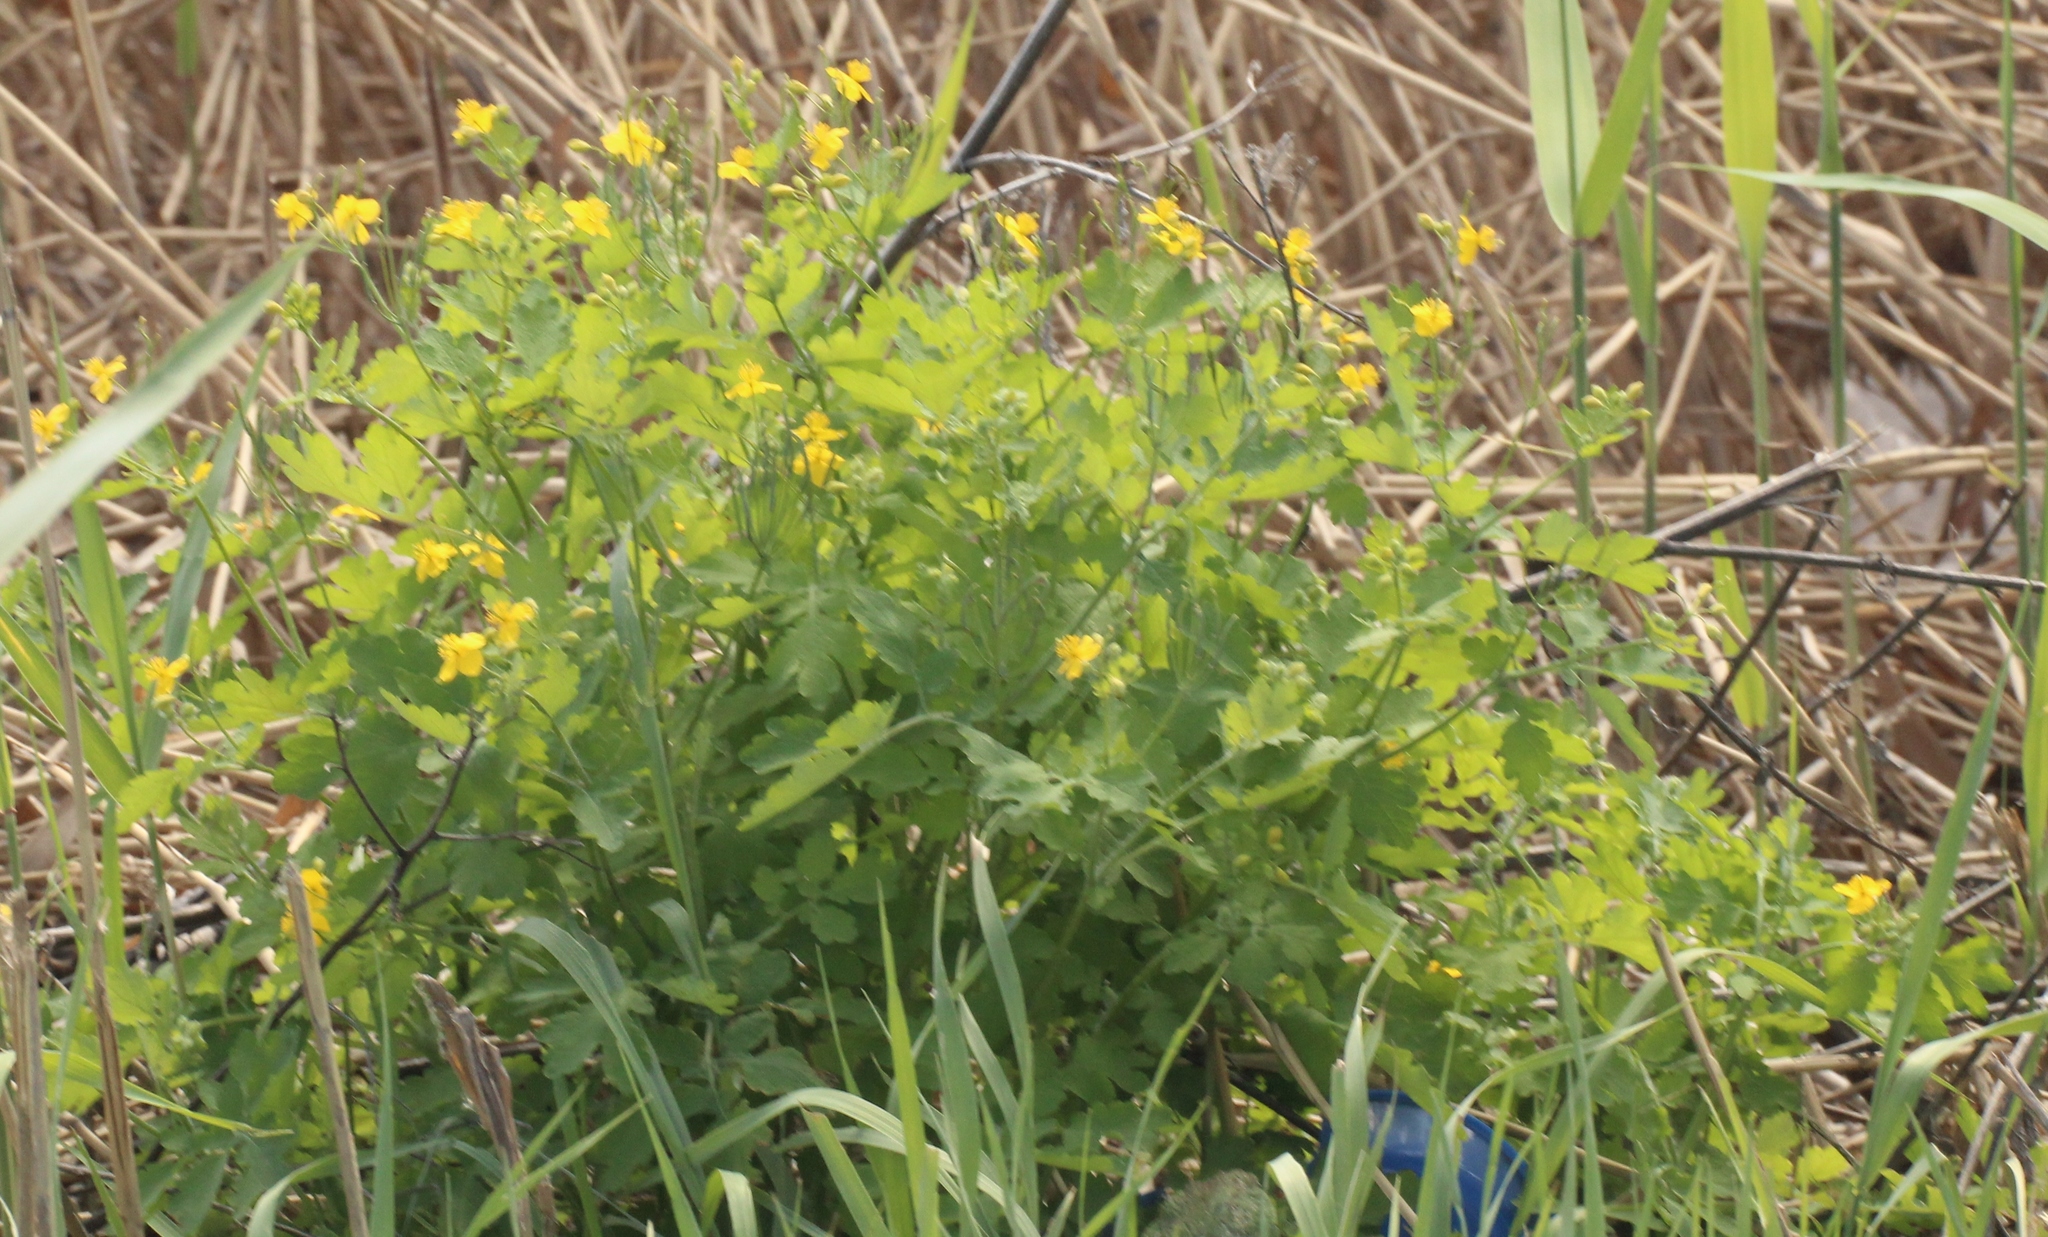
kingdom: Plantae
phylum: Tracheophyta
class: Magnoliopsida
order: Ranunculales
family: Papaveraceae
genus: Chelidonium
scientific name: Chelidonium majus
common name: Greater celandine
